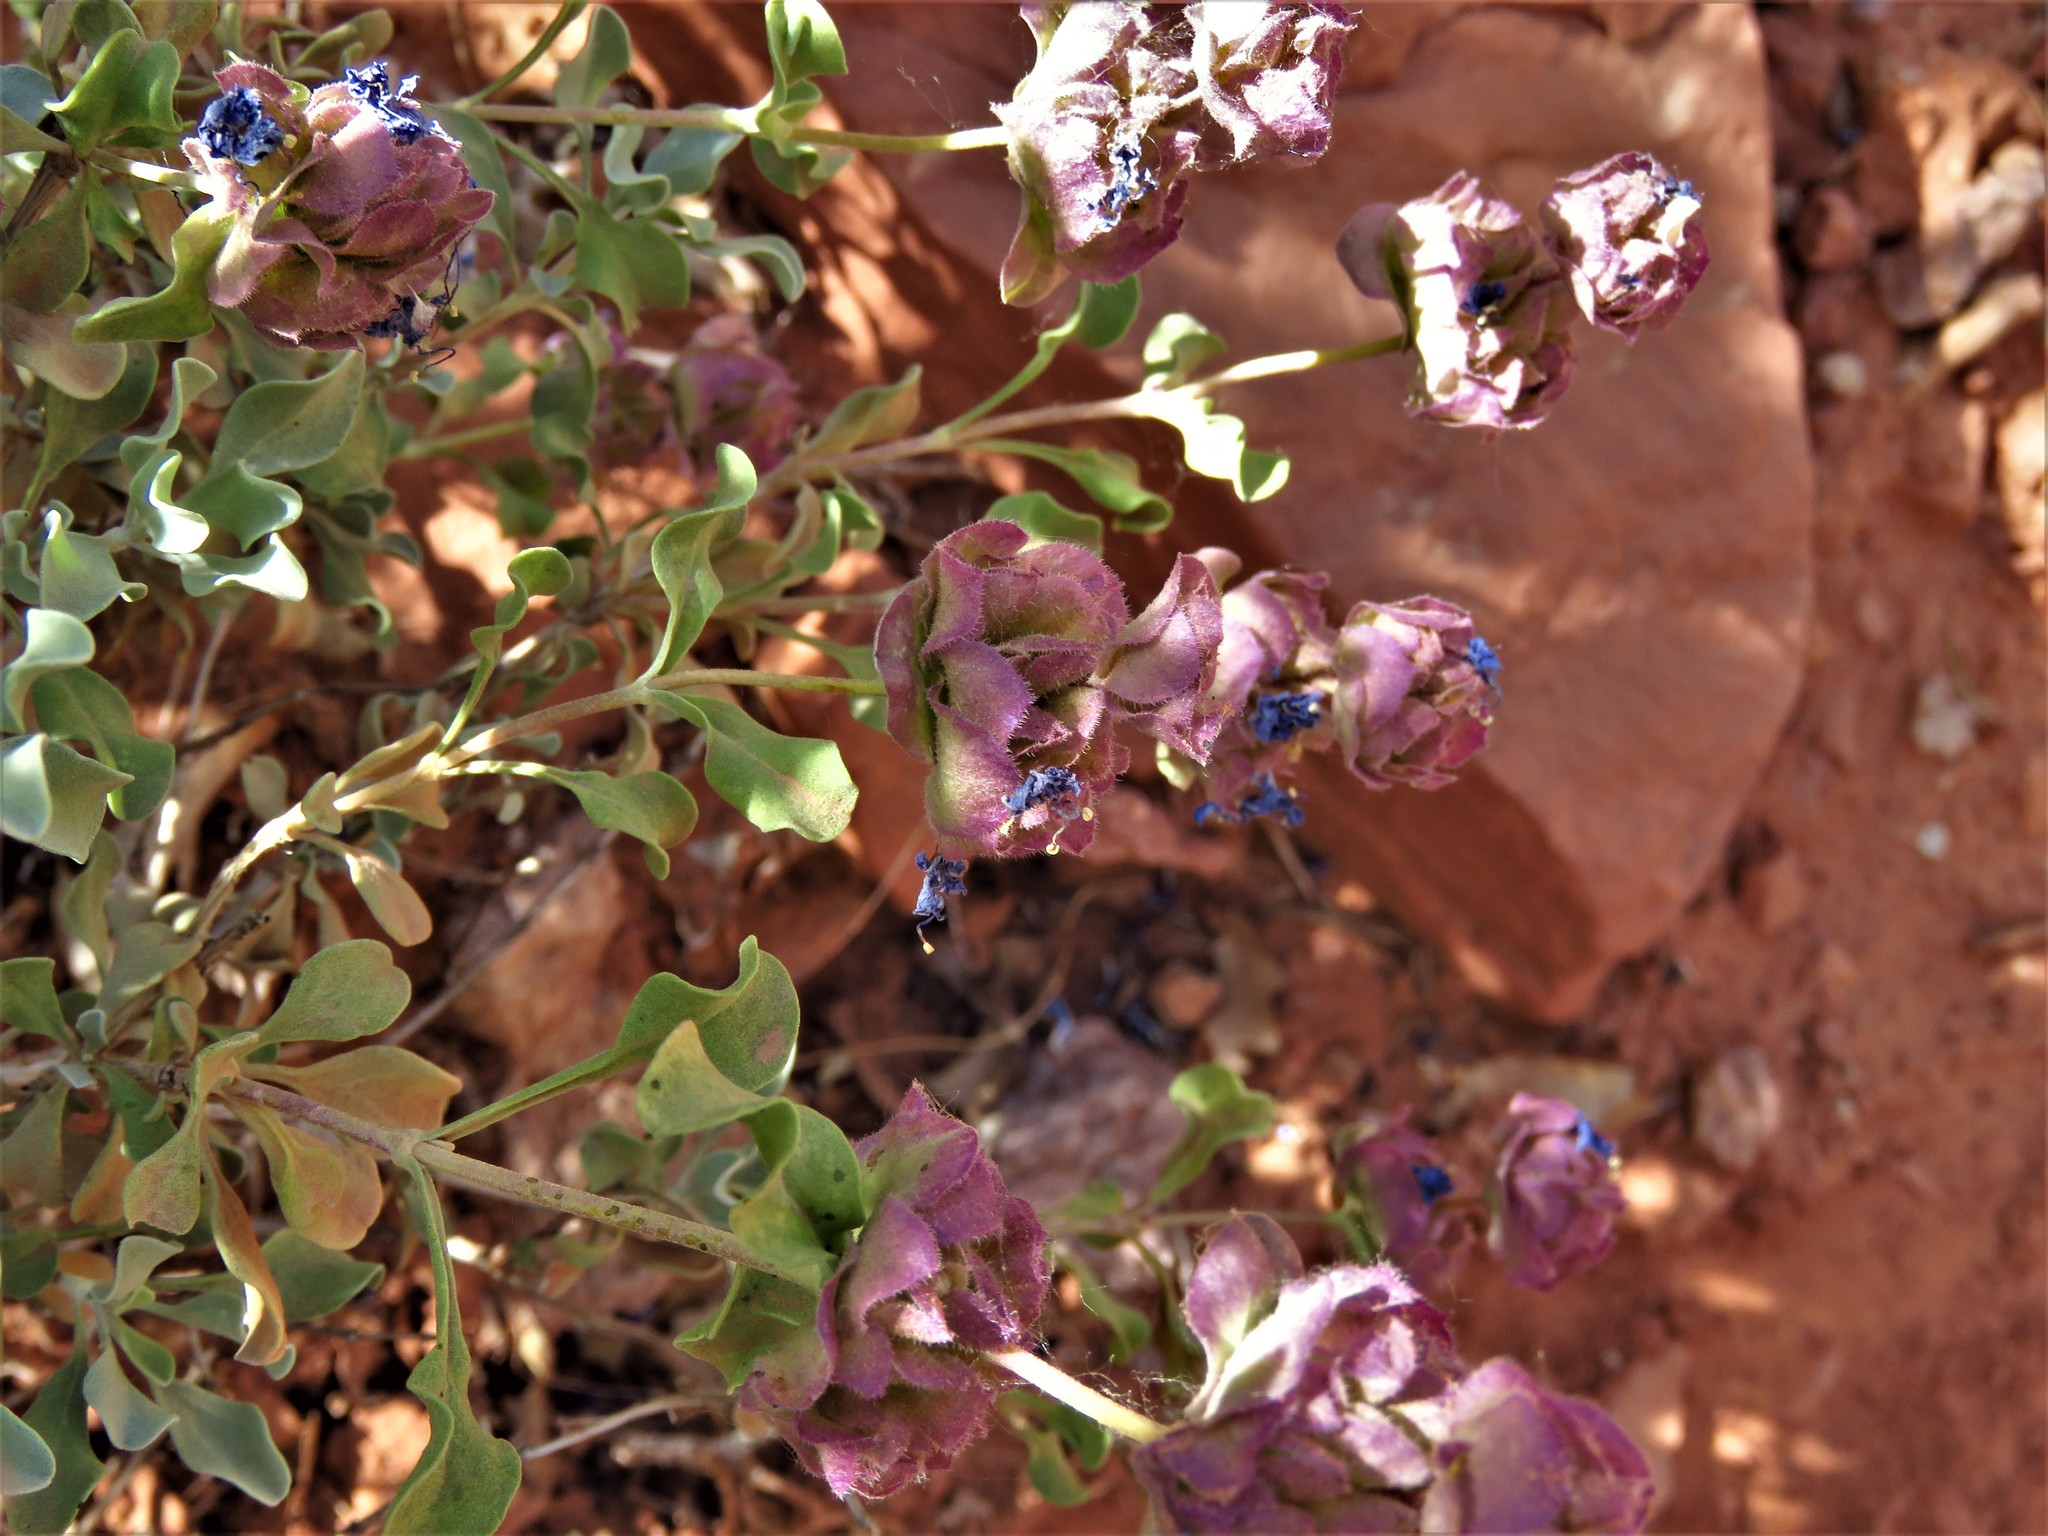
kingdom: Plantae
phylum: Tracheophyta
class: Magnoliopsida
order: Lamiales
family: Lamiaceae
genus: Salvia
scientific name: Salvia dorrii
